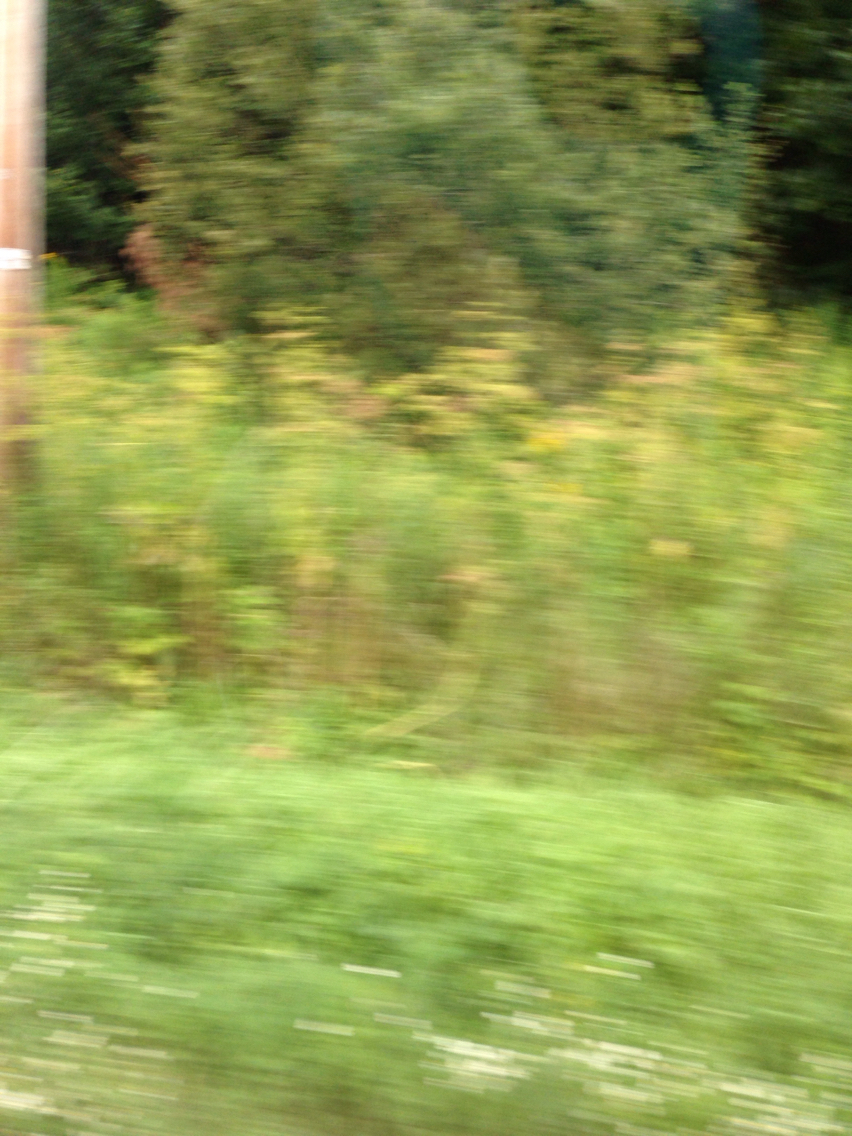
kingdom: Plantae
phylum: Tracheophyta
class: Magnoliopsida
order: Apiales
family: Apiaceae
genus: Pastinaca
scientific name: Pastinaca sativa
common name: Wild parsnip
